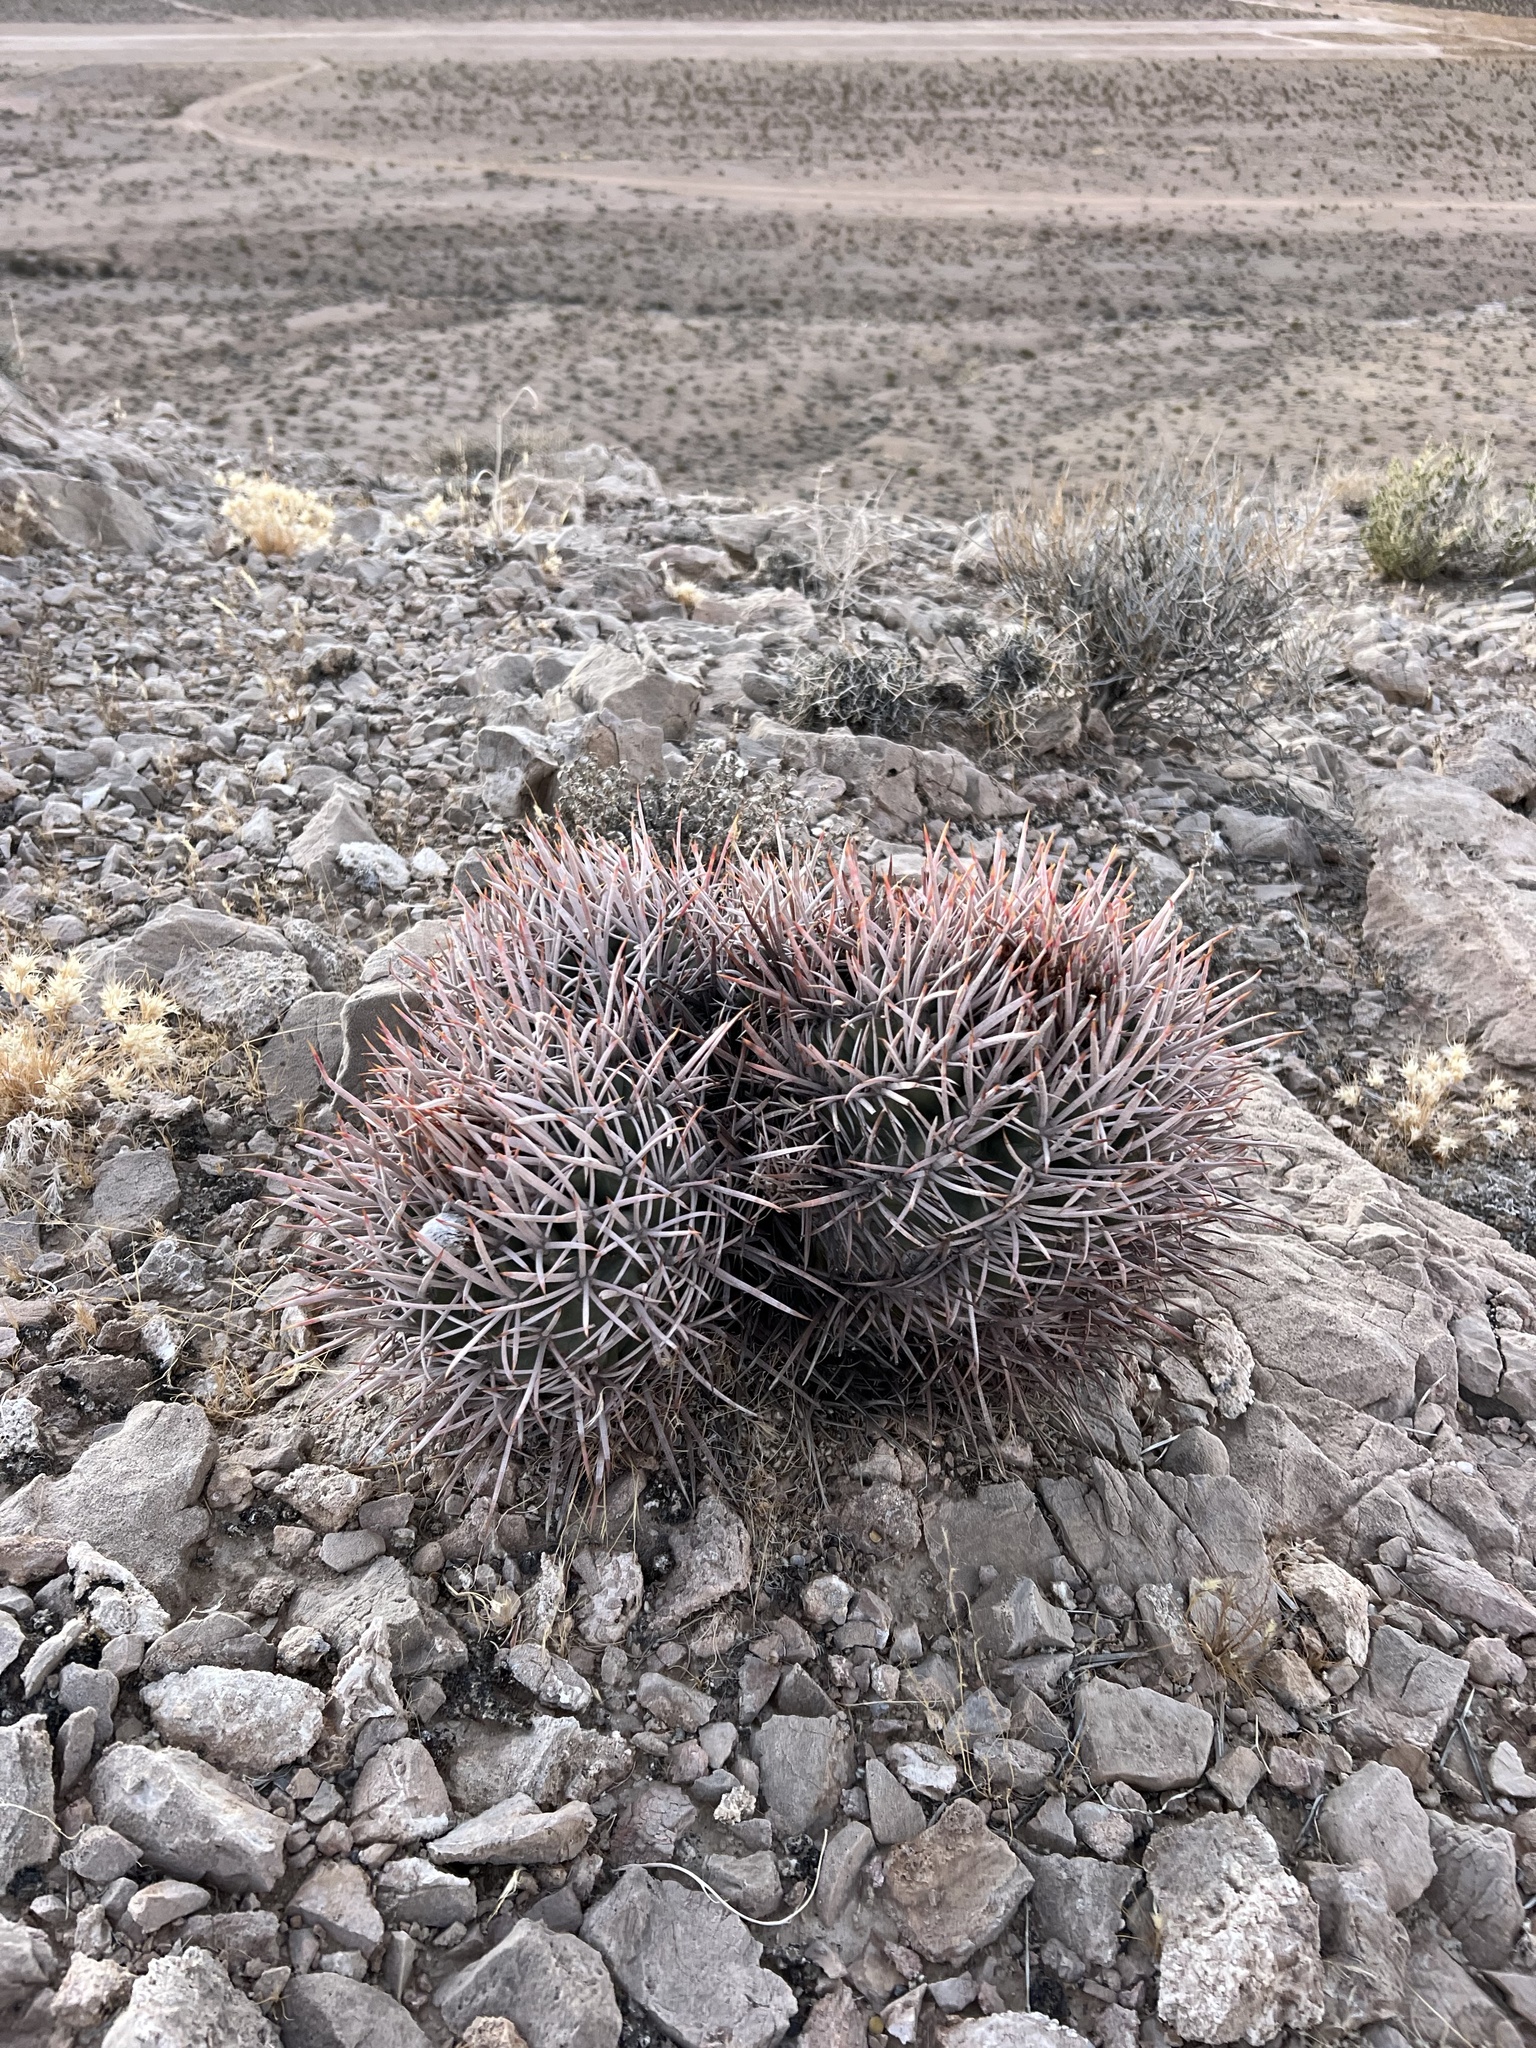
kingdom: Plantae
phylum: Tracheophyta
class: Magnoliopsida
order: Caryophyllales
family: Cactaceae
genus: Echinocactus
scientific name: Echinocactus polycephalus
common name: Cottontop cactus
